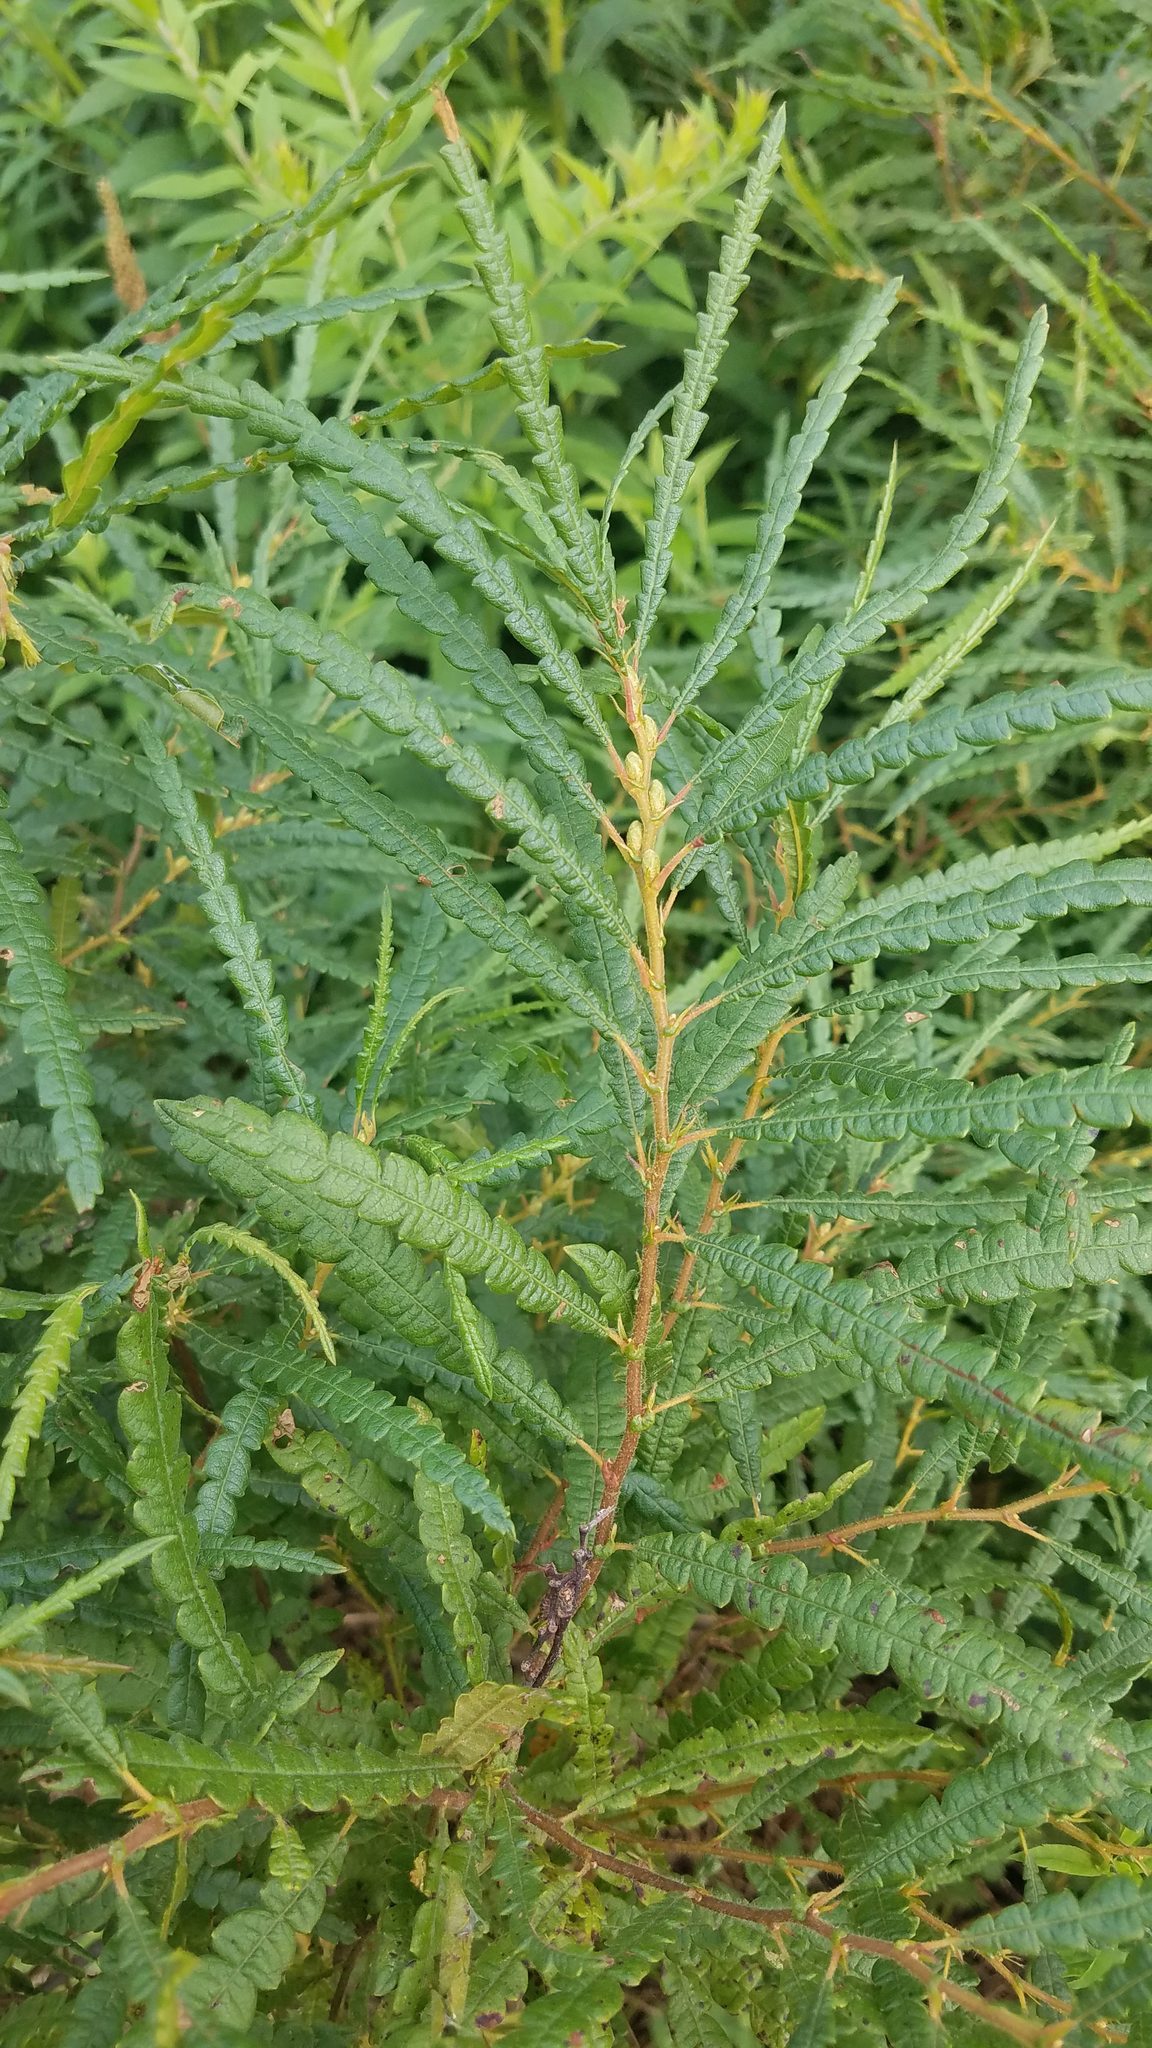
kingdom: Plantae
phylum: Tracheophyta
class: Magnoliopsida
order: Fagales
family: Myricaceae
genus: Comptonia
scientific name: Comptonia peregrina
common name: Sweet-fern
